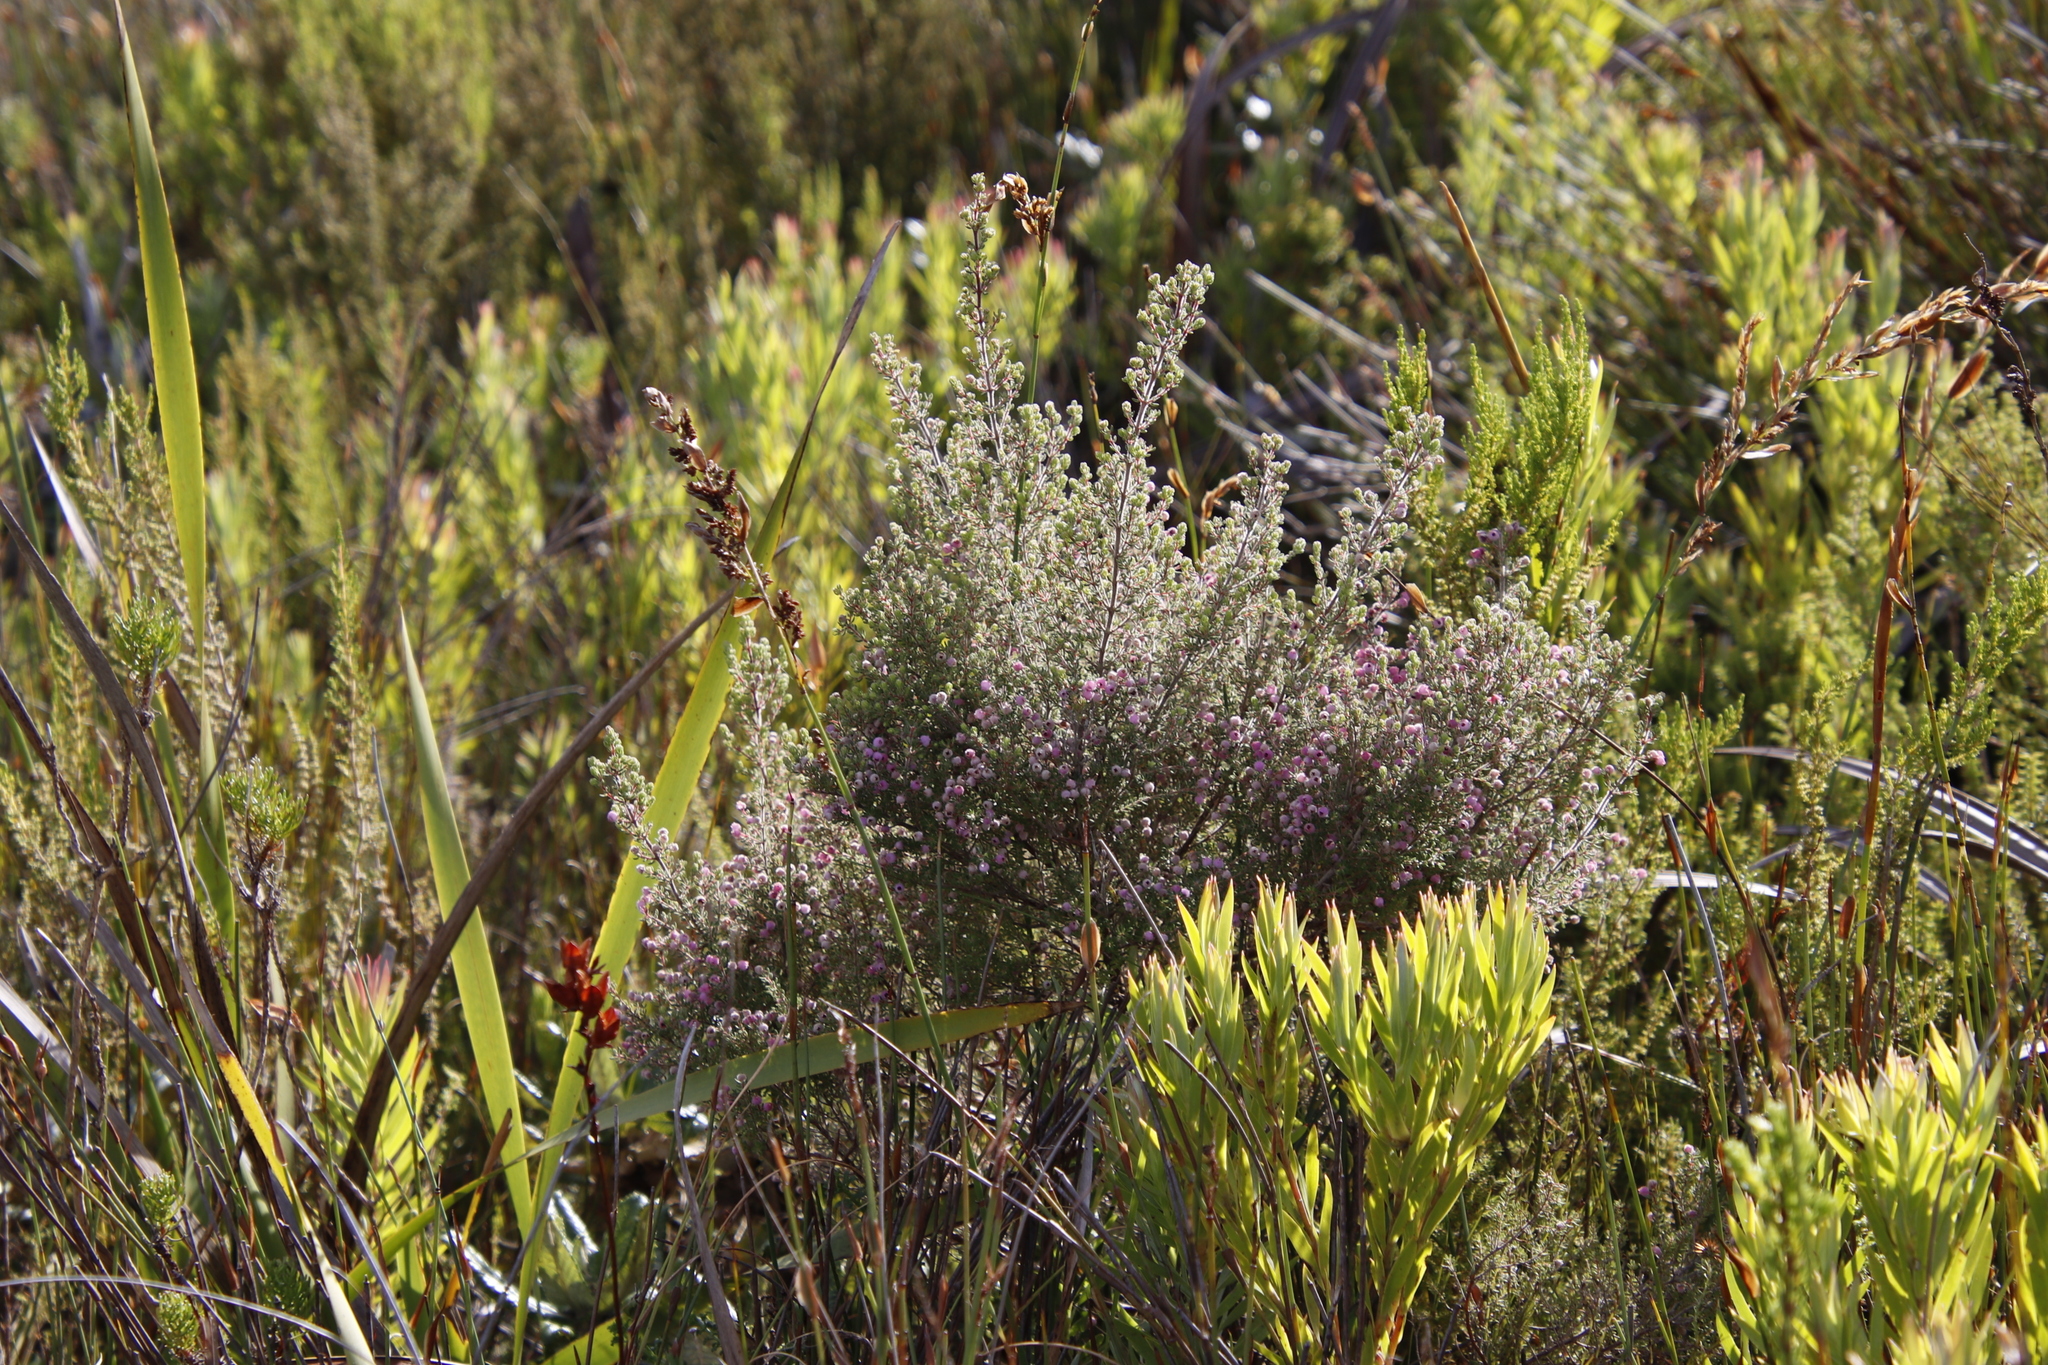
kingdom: Plantae
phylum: Tracheophyta
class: Magnoliopsida
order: Ericales
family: Ericaceae
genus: Erica
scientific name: Erica hirtiflora
